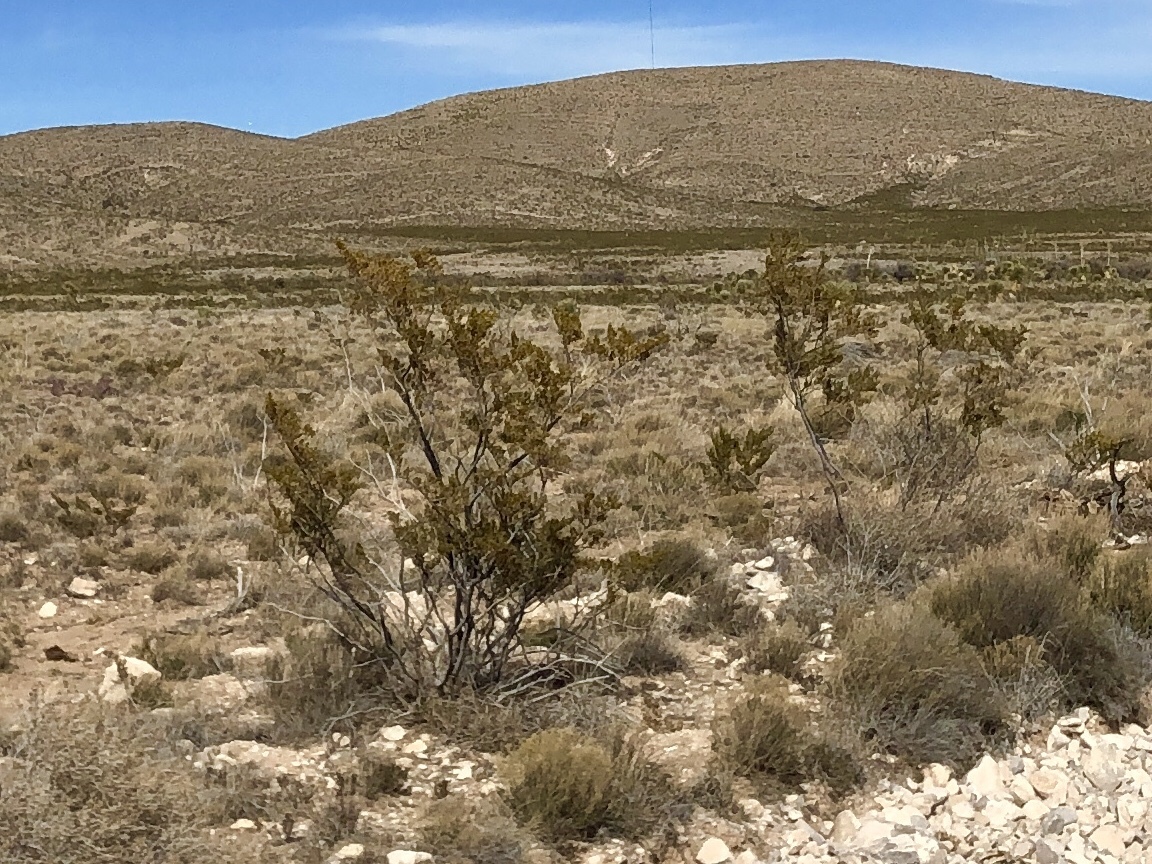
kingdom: Plantae
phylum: Tracheophyta
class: Magnoliopsida
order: Zygophyllales
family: Zygophyllaceae
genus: Larrea
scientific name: Larrea tridentata
